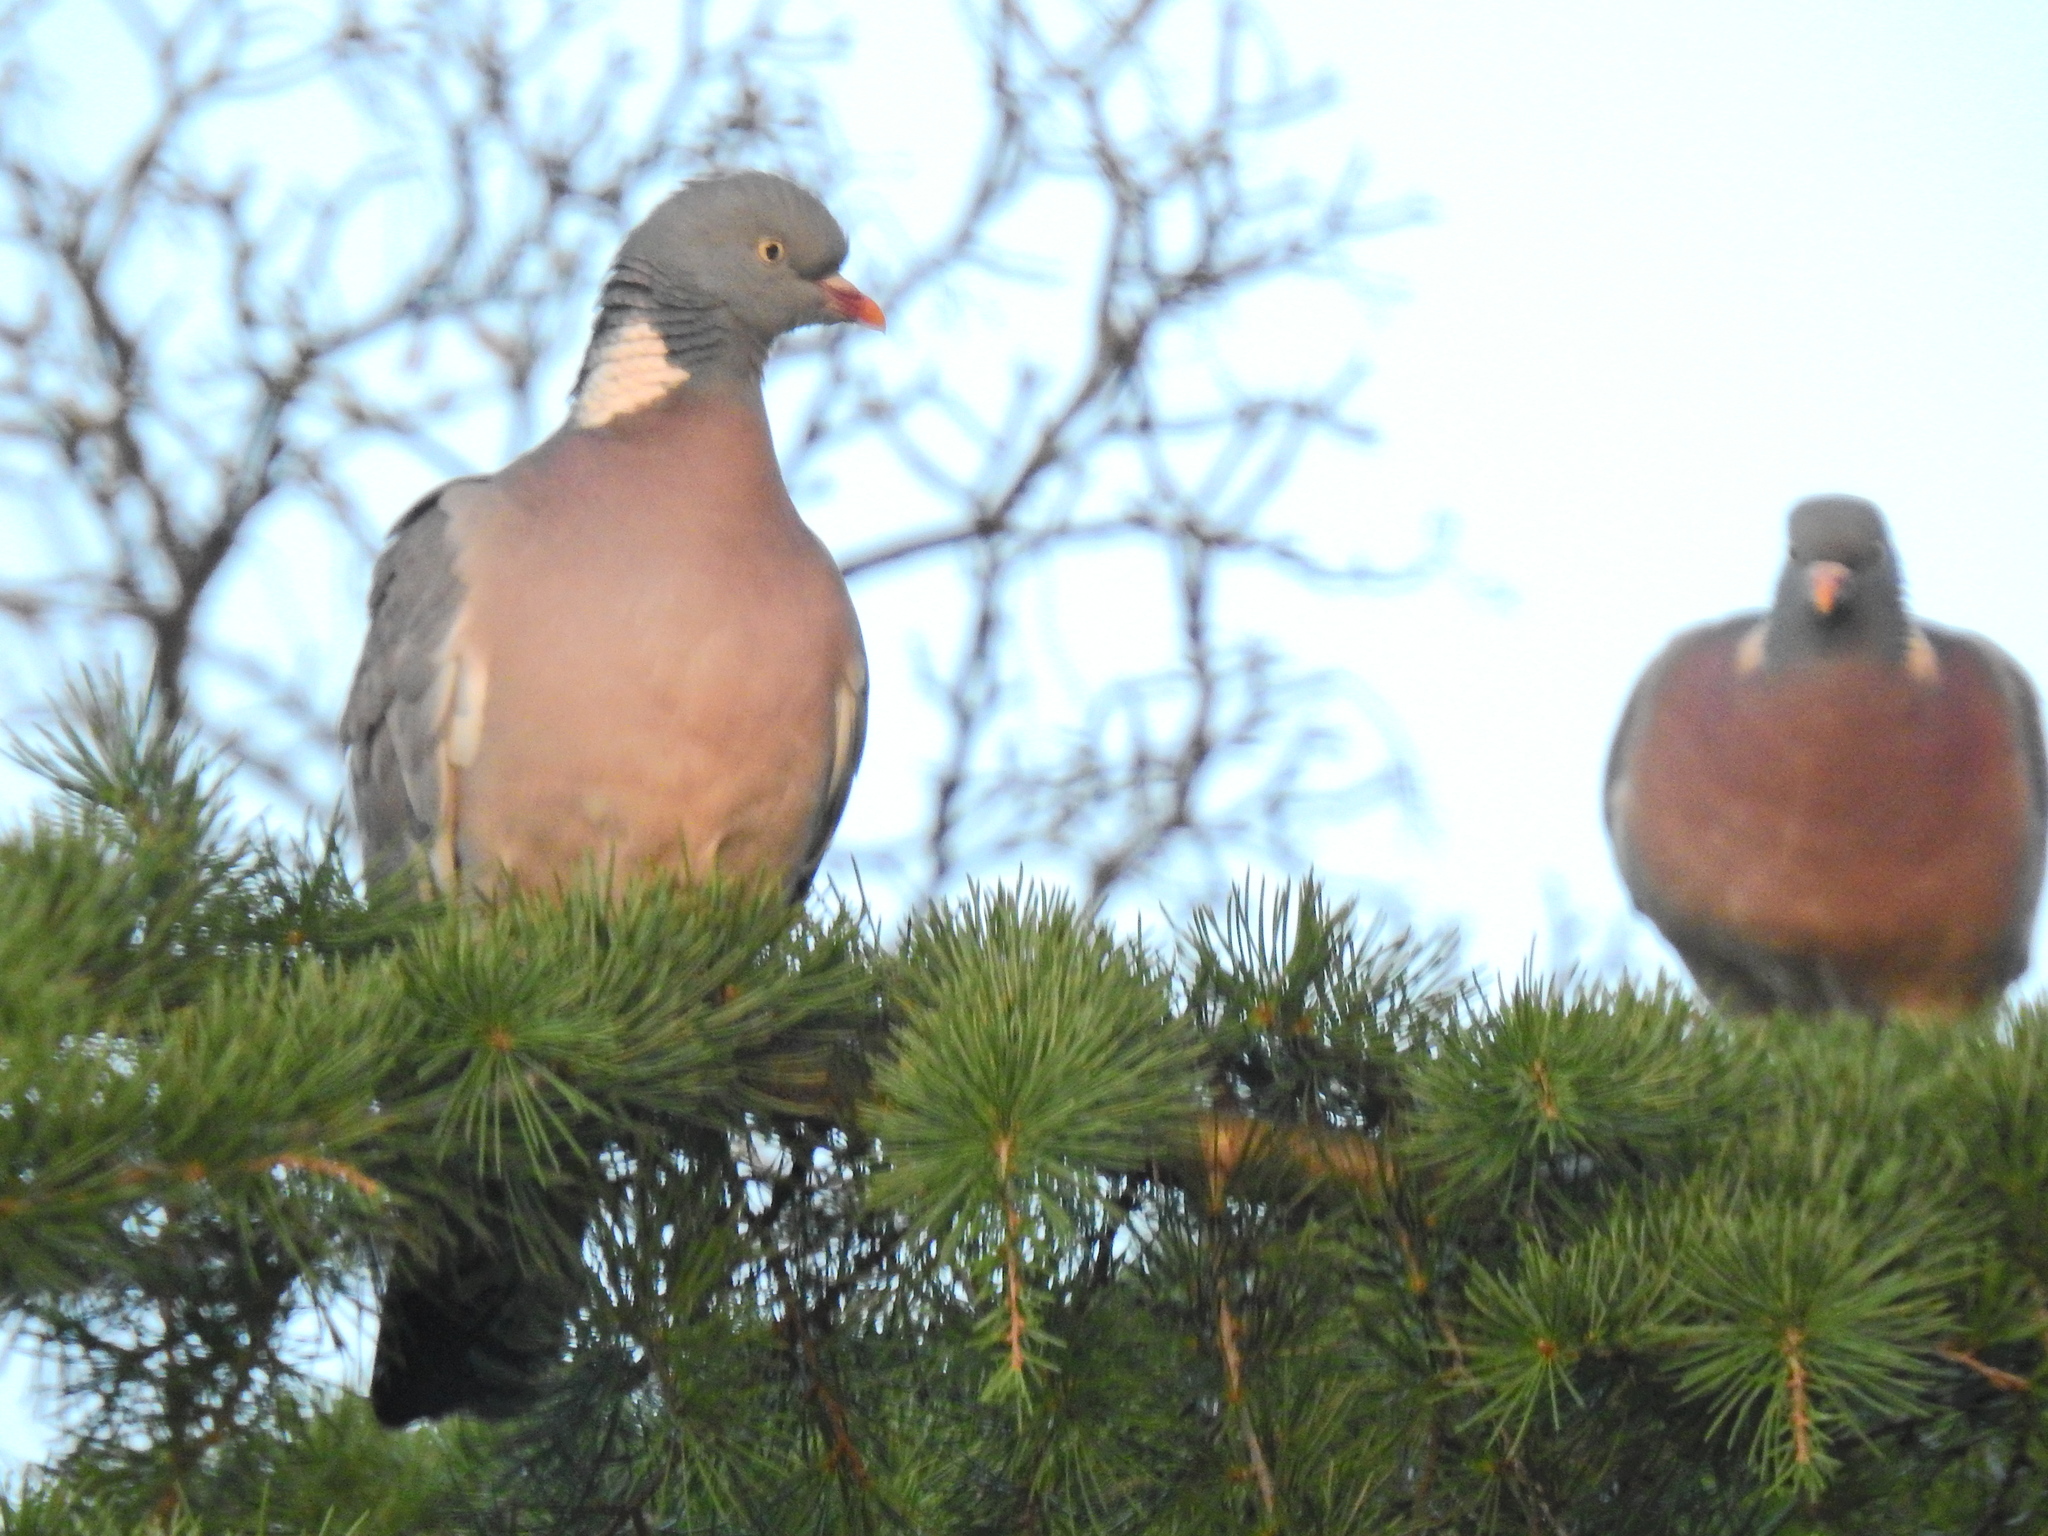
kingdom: Animalia
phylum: Chordata
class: Aves
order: Columbiformes
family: Columbidae
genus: Columba
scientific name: Columba palumbus
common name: Common wood pigeon
